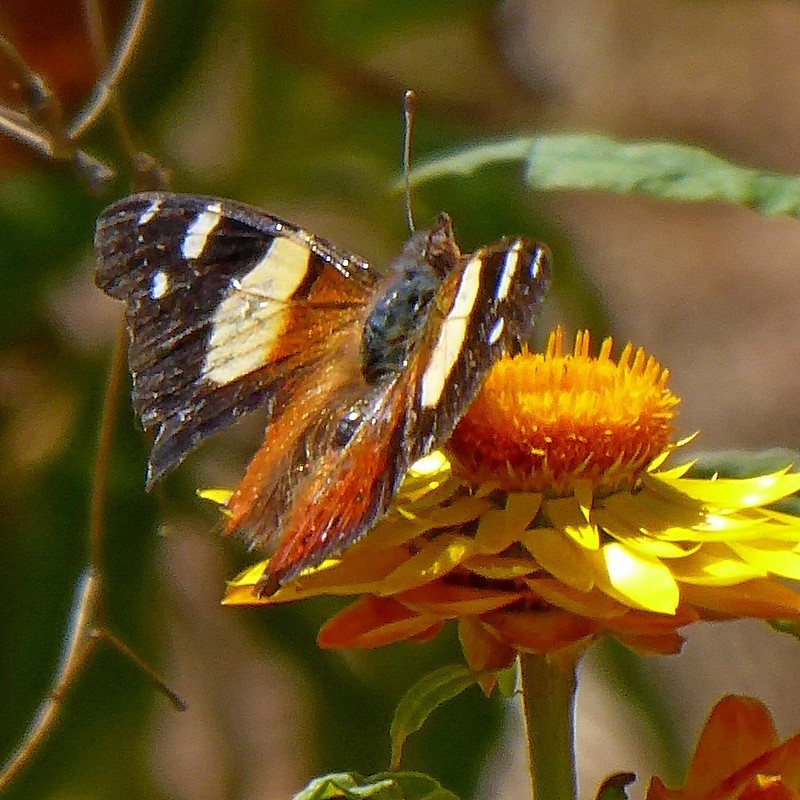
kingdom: Animalia
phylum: Arthropoda
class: Insecta
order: Lepidoptera
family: Nymphalidae
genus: Vanessa
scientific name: Vanessa itea
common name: Yellow admiral
